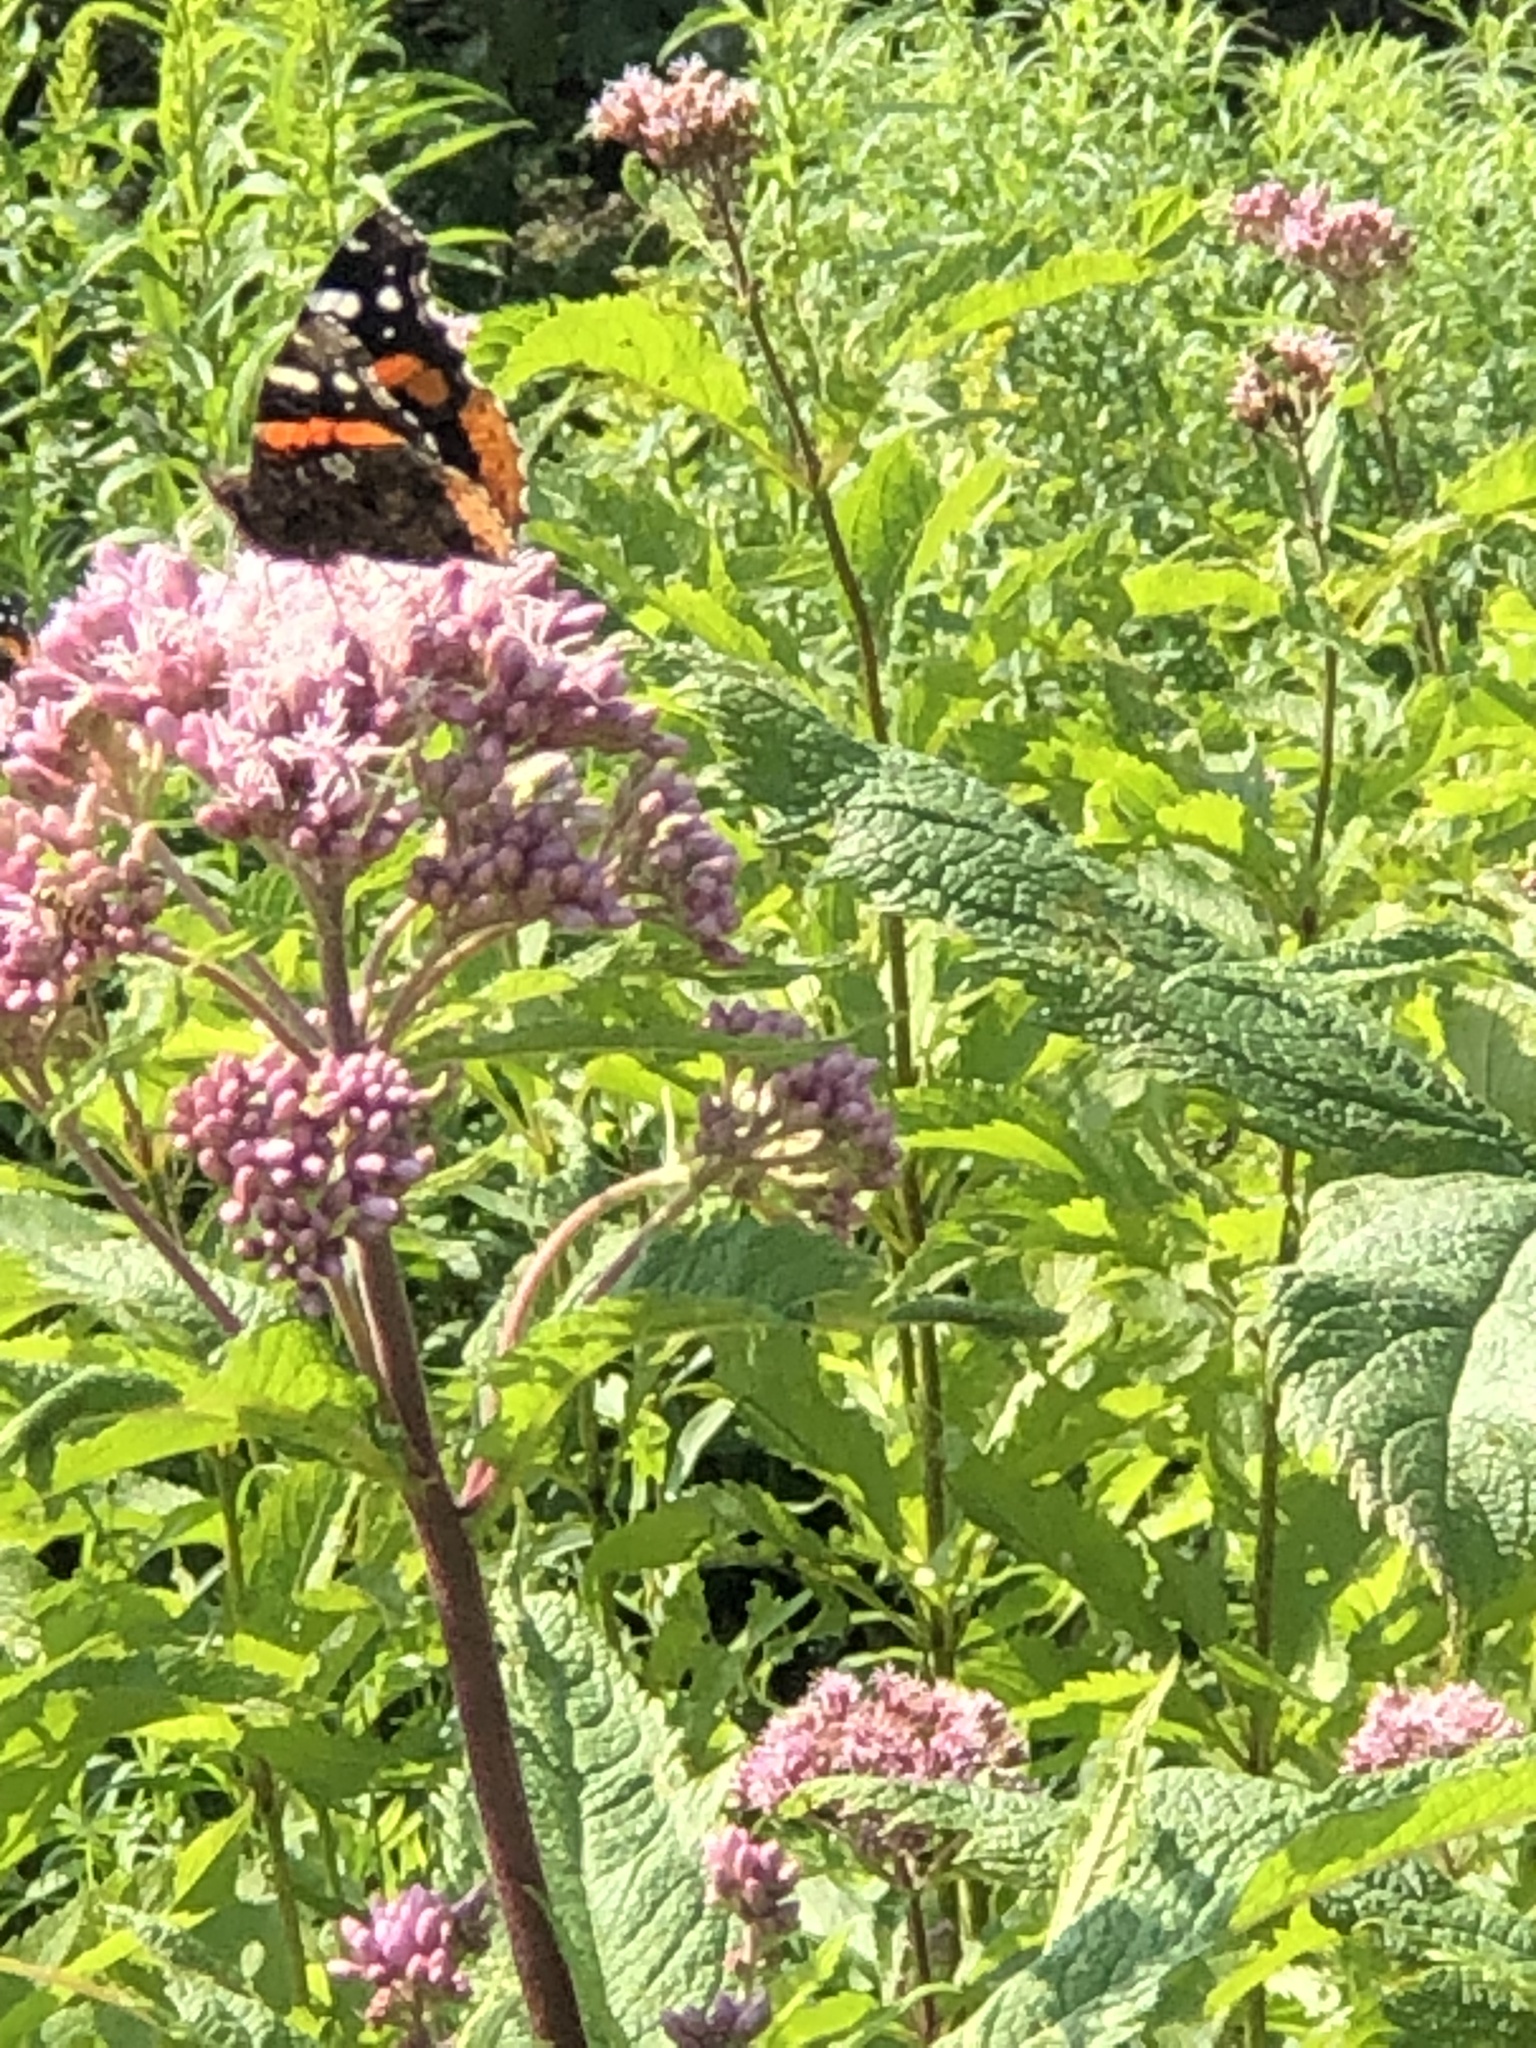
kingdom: Animalia
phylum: Arthropoda
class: Insecta
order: Lepidoptera
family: Nymphalidae
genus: Vanessa
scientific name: Vanessa atalanta
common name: Red admiral
